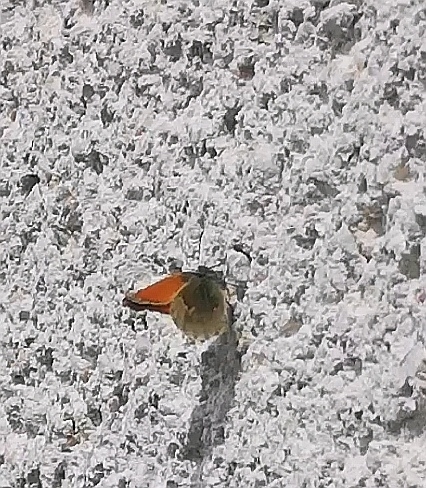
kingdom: Animalia
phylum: Arthropoda
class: Insecta
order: Lepidoptera
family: Nymphalidae
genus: Coenonympha
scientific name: Coenonympha pamphilus
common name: Small heath
